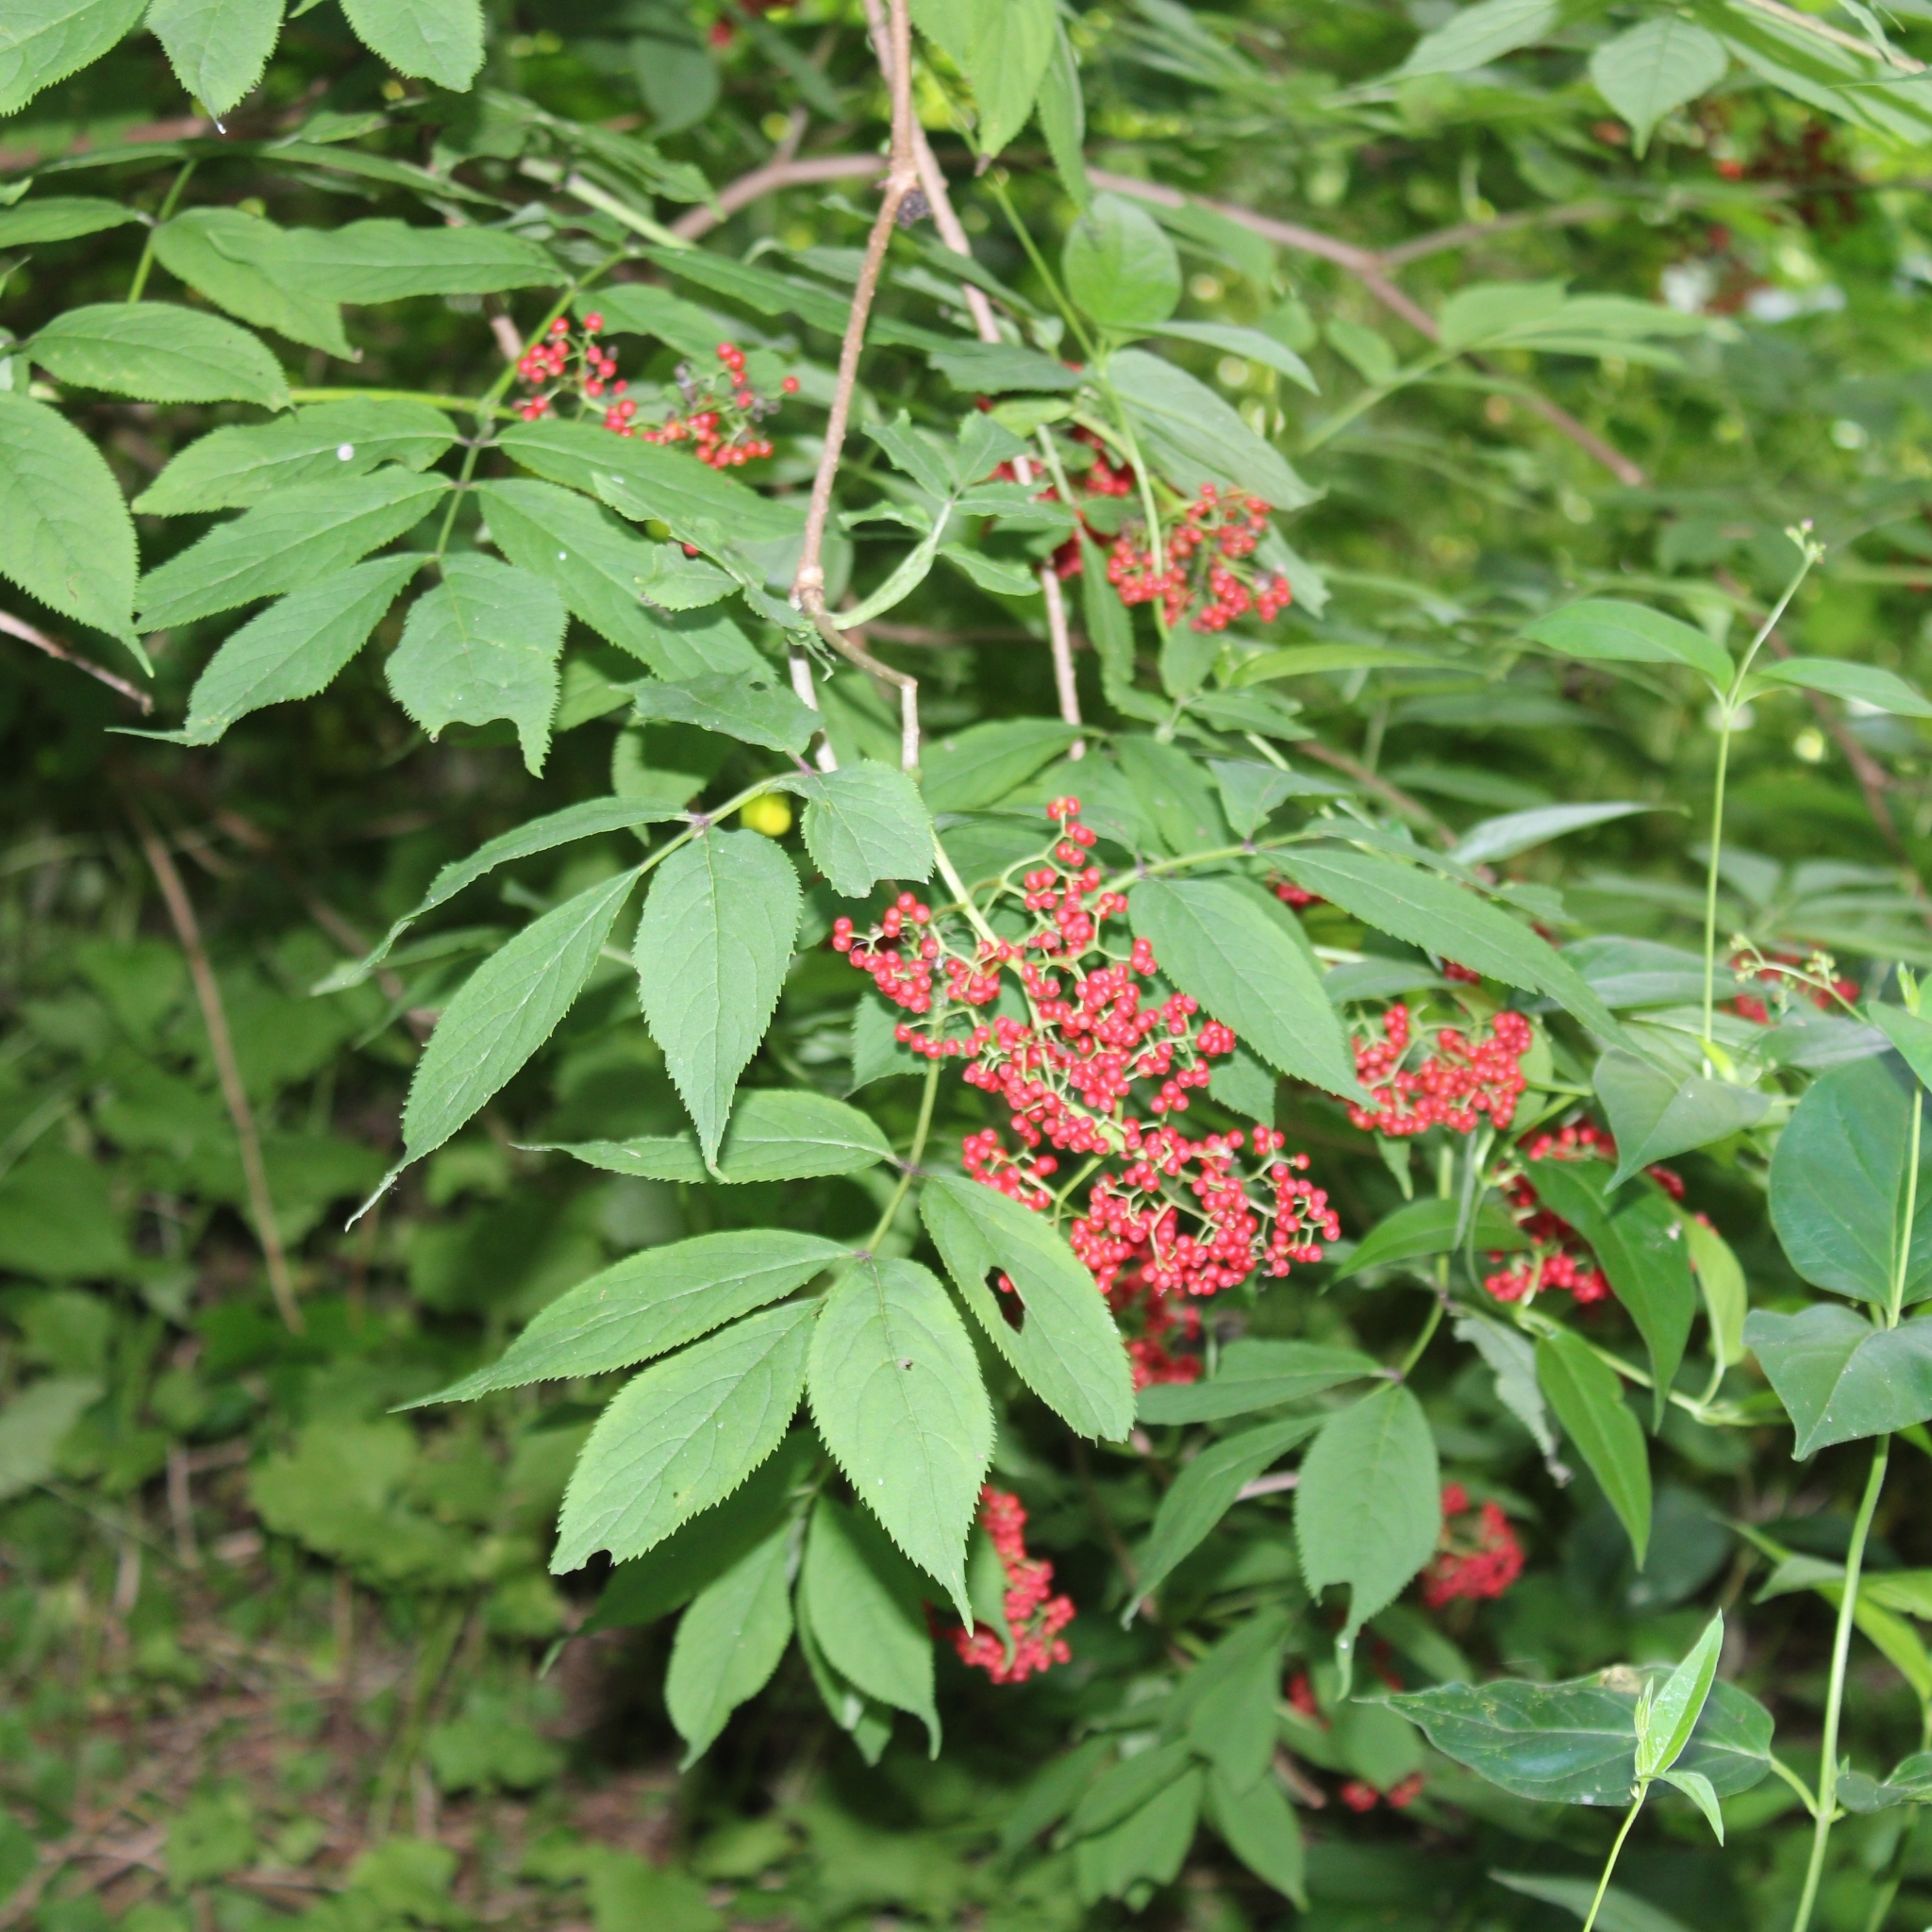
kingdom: Plantae
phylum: Tracheophyta
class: Magnoliopsida
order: Dipsacales
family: Viburnaceae
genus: Sambucus
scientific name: Sambucus racemosa
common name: Red-berried elder
